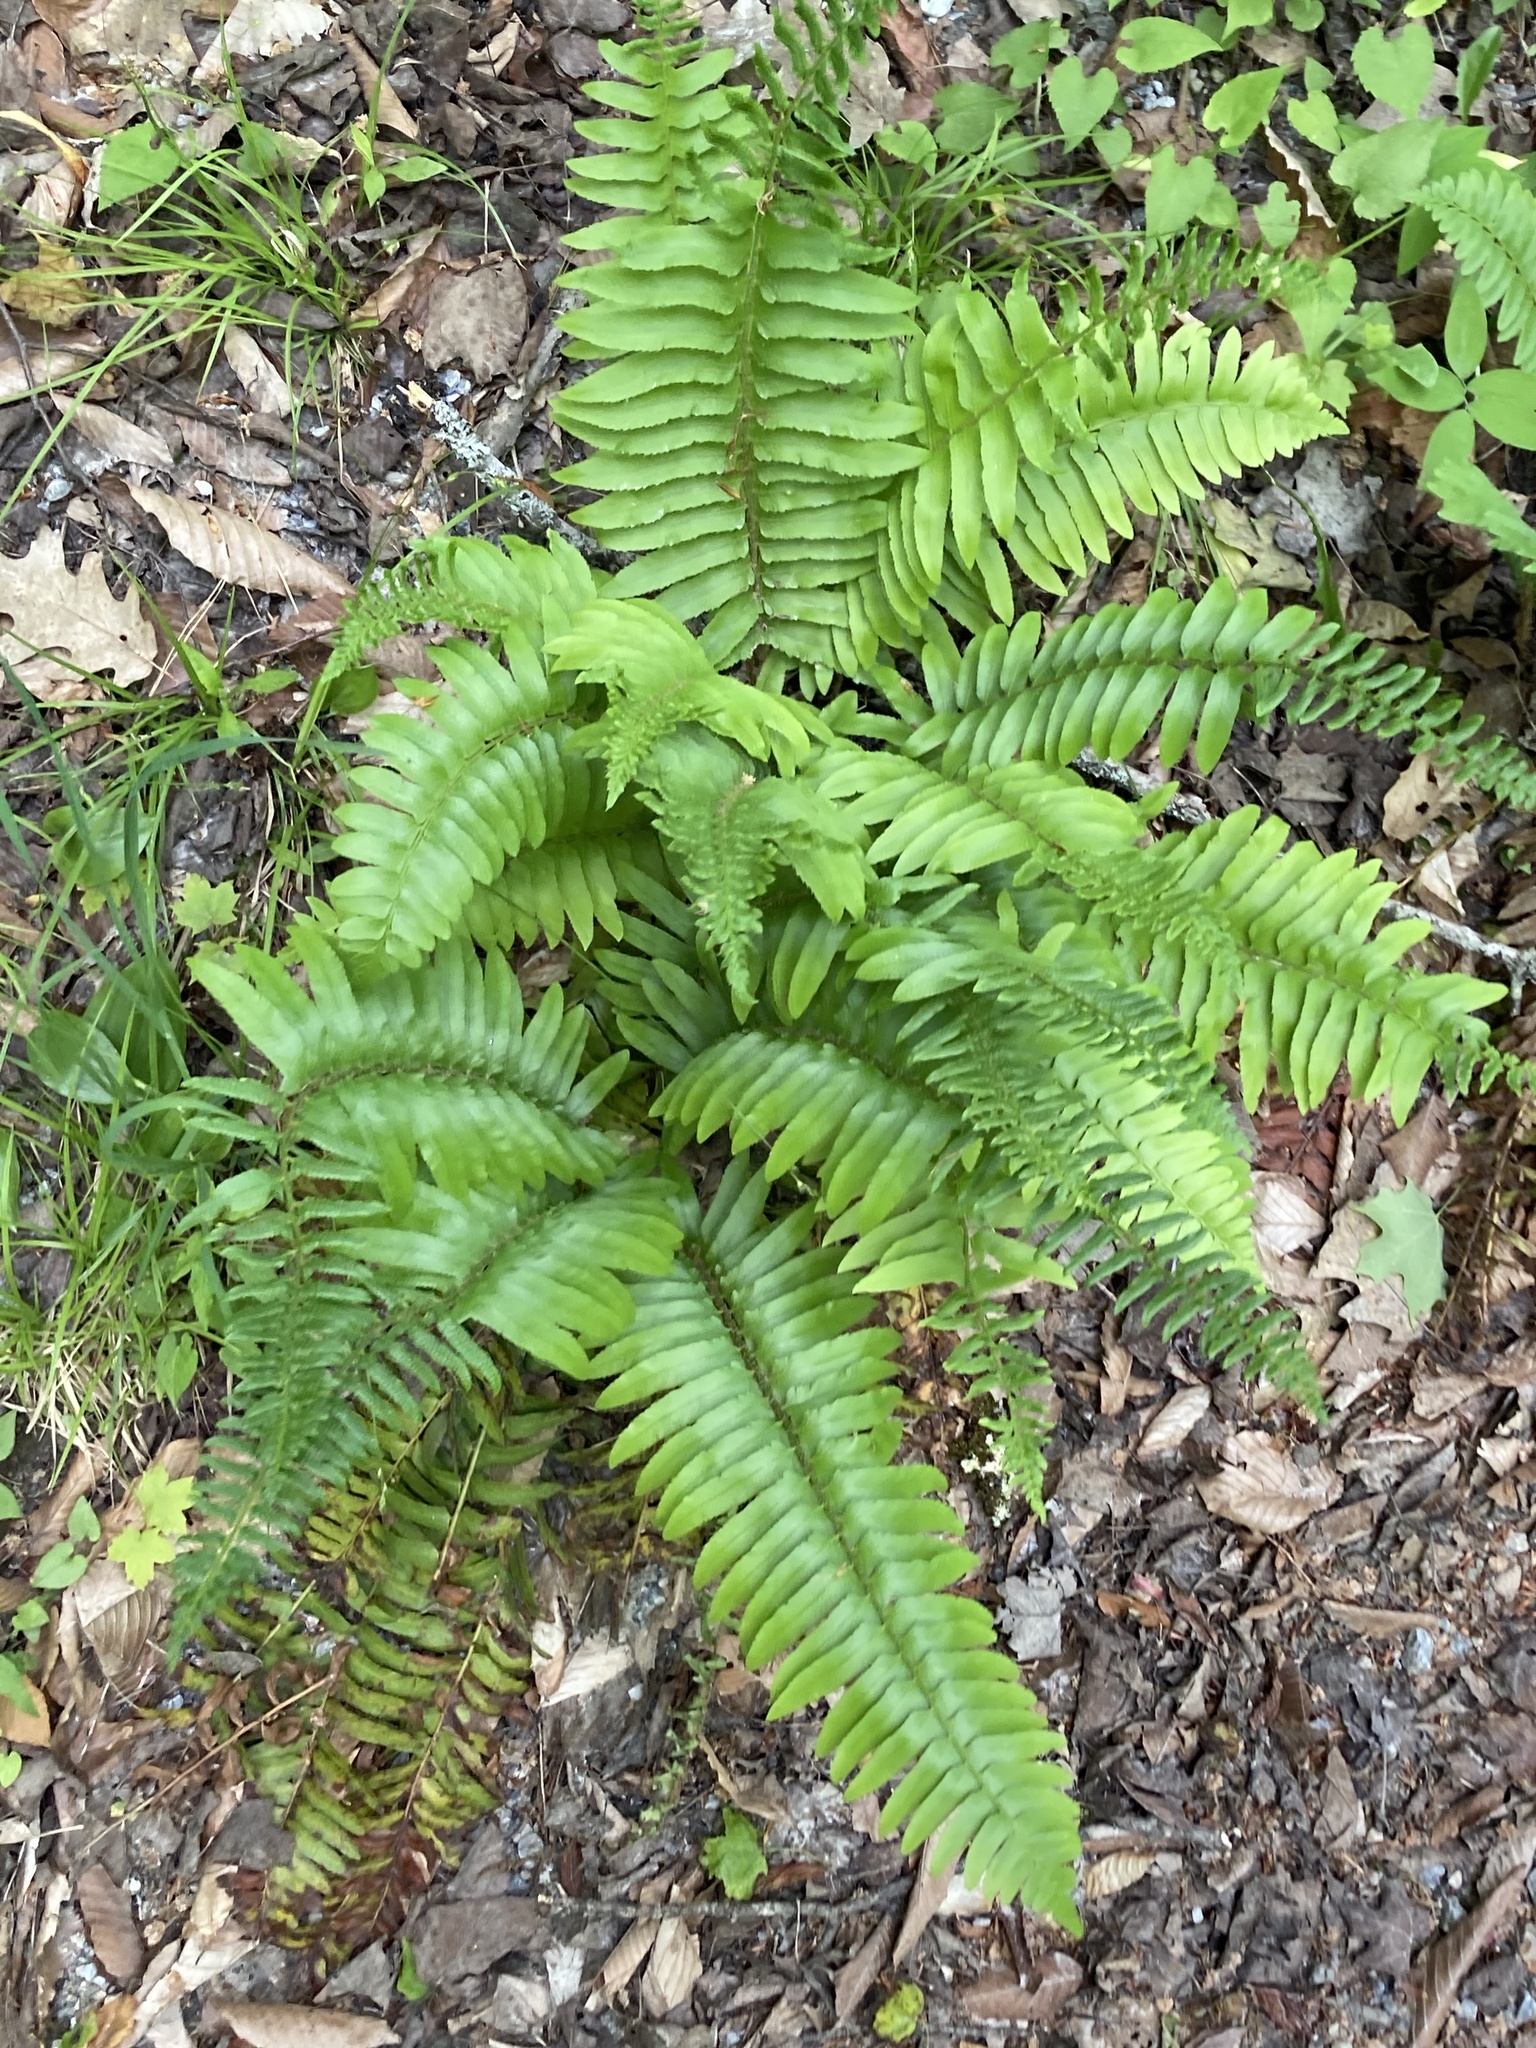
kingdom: Plantae
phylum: Tracheophyta
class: Polypodiopsida
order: Polypodiales
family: Dryopteridaceae
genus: Polystichum
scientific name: Polystichum acrostichoides
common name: Christmas fern
